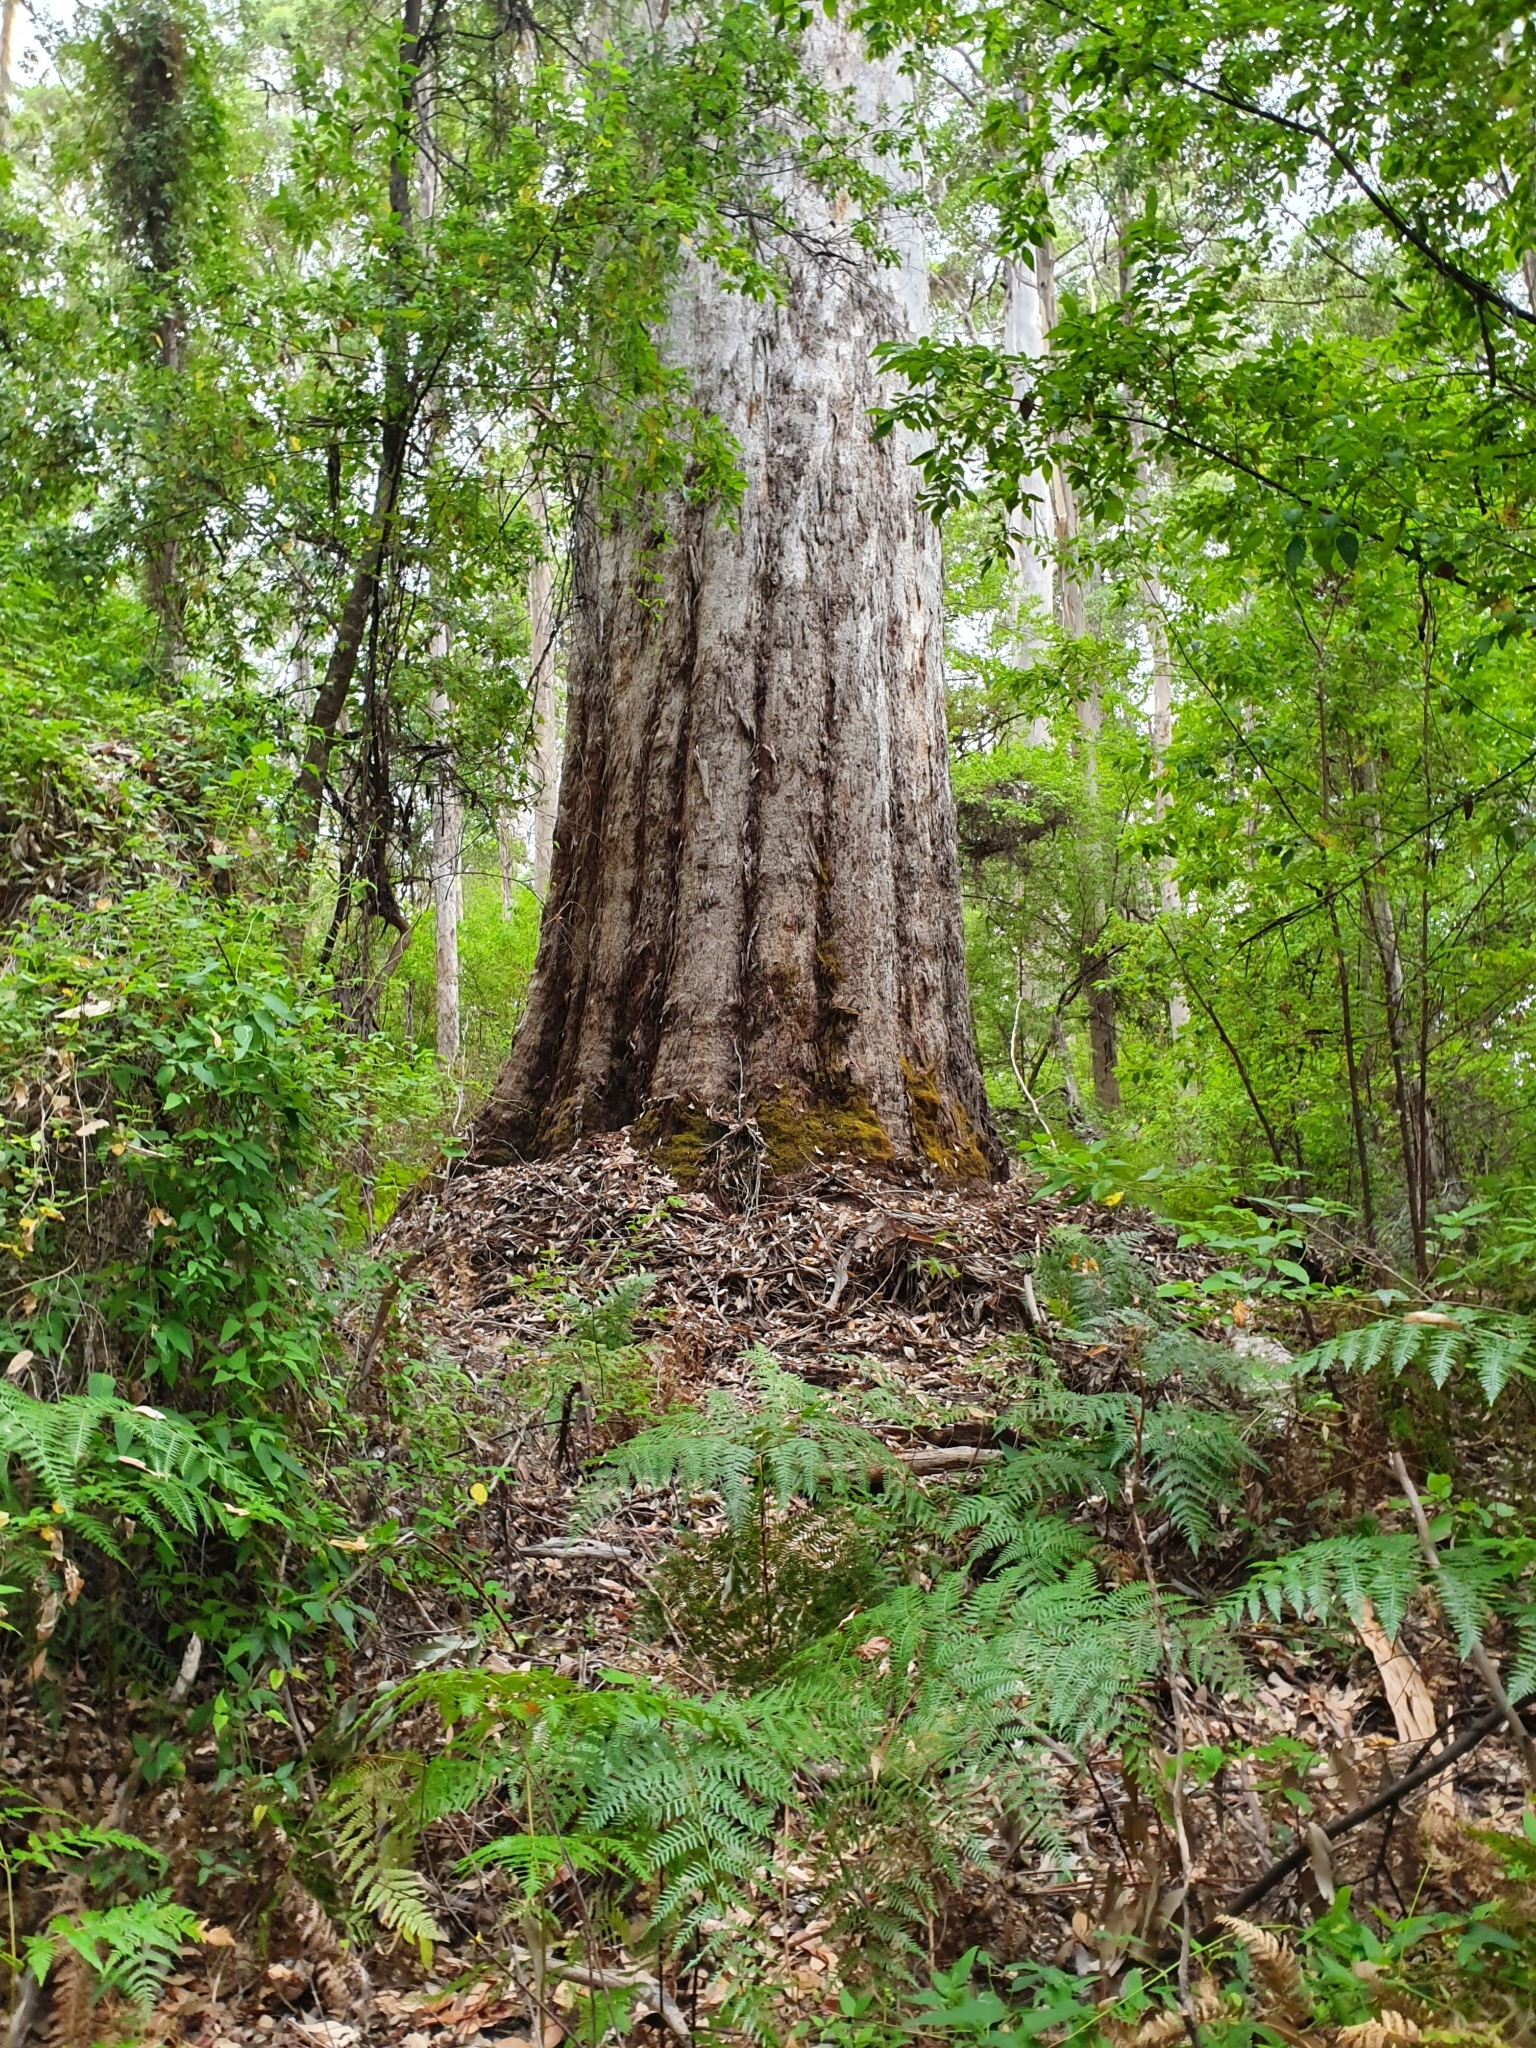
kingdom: Plantae
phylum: Tracheophyta
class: Magnoliopsida
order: Myrtales
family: Myrtaceae
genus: Eucalyptus
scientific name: Eucalyptus diversicolor
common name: Karri
